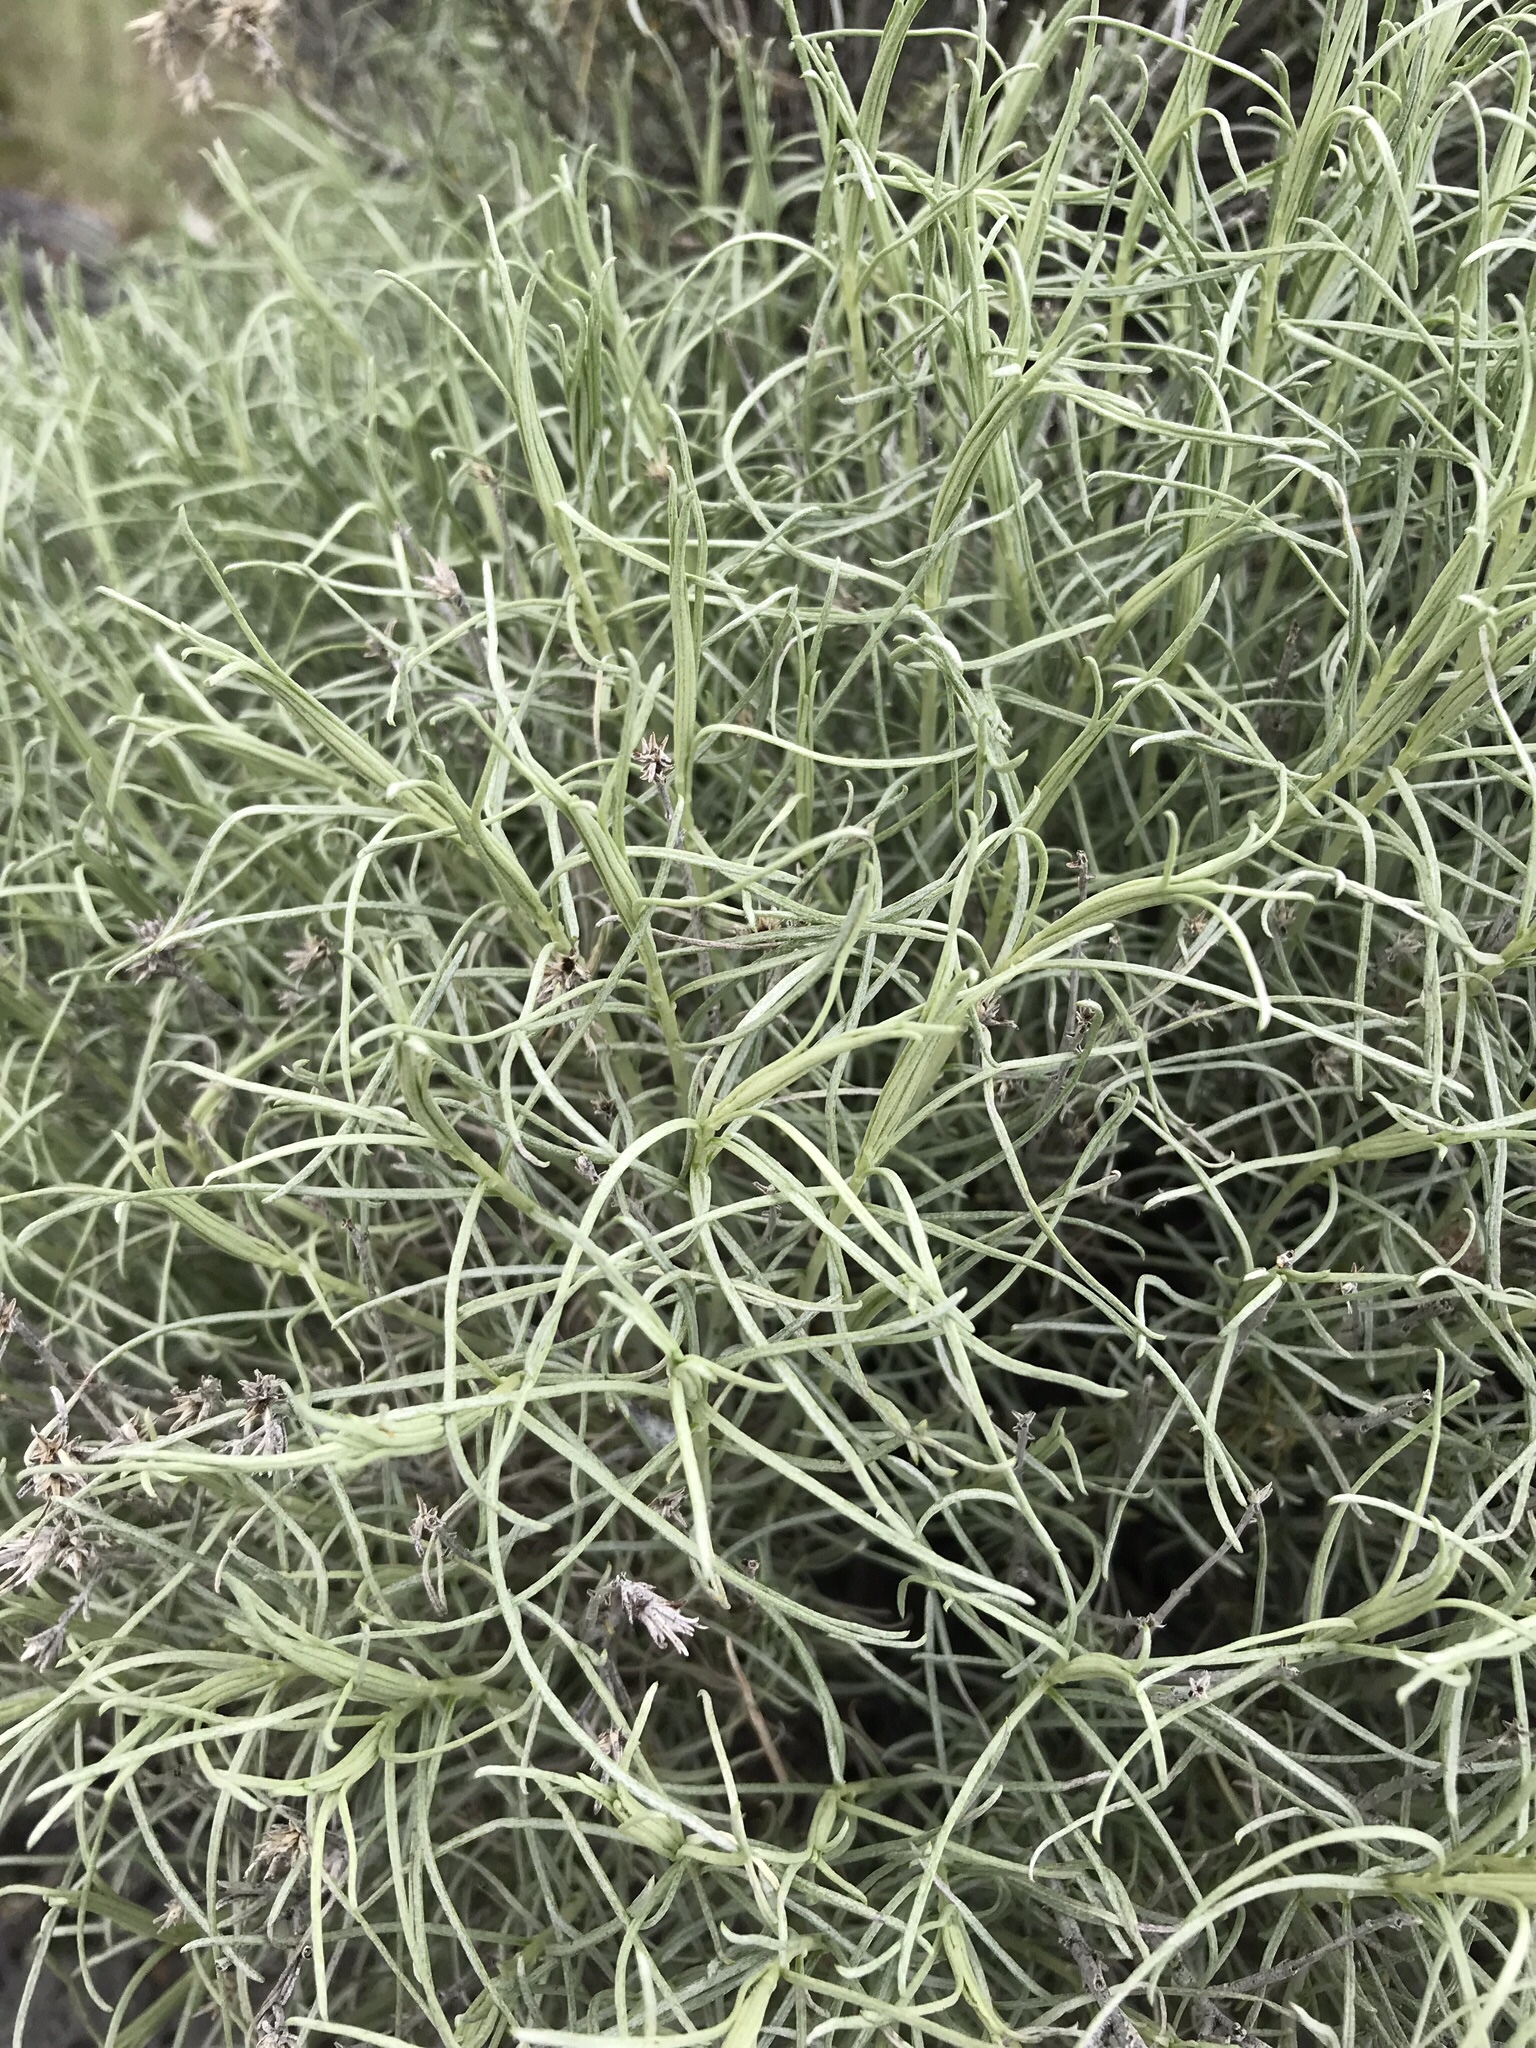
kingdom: Plantae
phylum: Tracheophyta
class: Magnoliopsida
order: Asterales
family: Asteraceae
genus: Ericameria
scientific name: Ericameria nauseosa
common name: Rubber rabbitbrush
